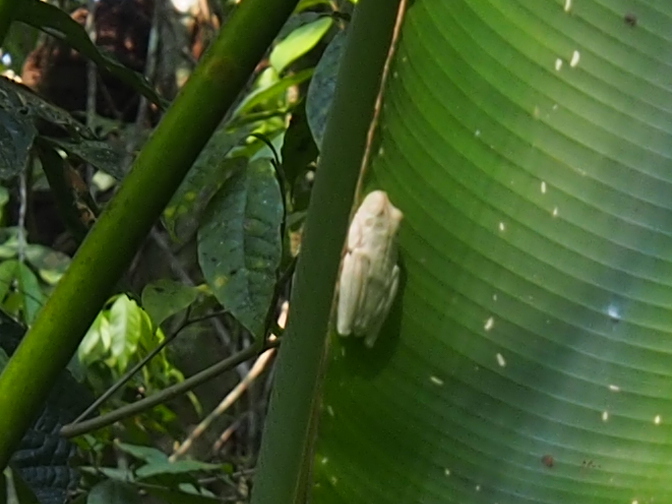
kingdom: Animalia
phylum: Chordata
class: Amphibia
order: Anura
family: Hylidae
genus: Boana
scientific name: Boana rosenbergi
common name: Rosenberg´s gladiator treefrog
